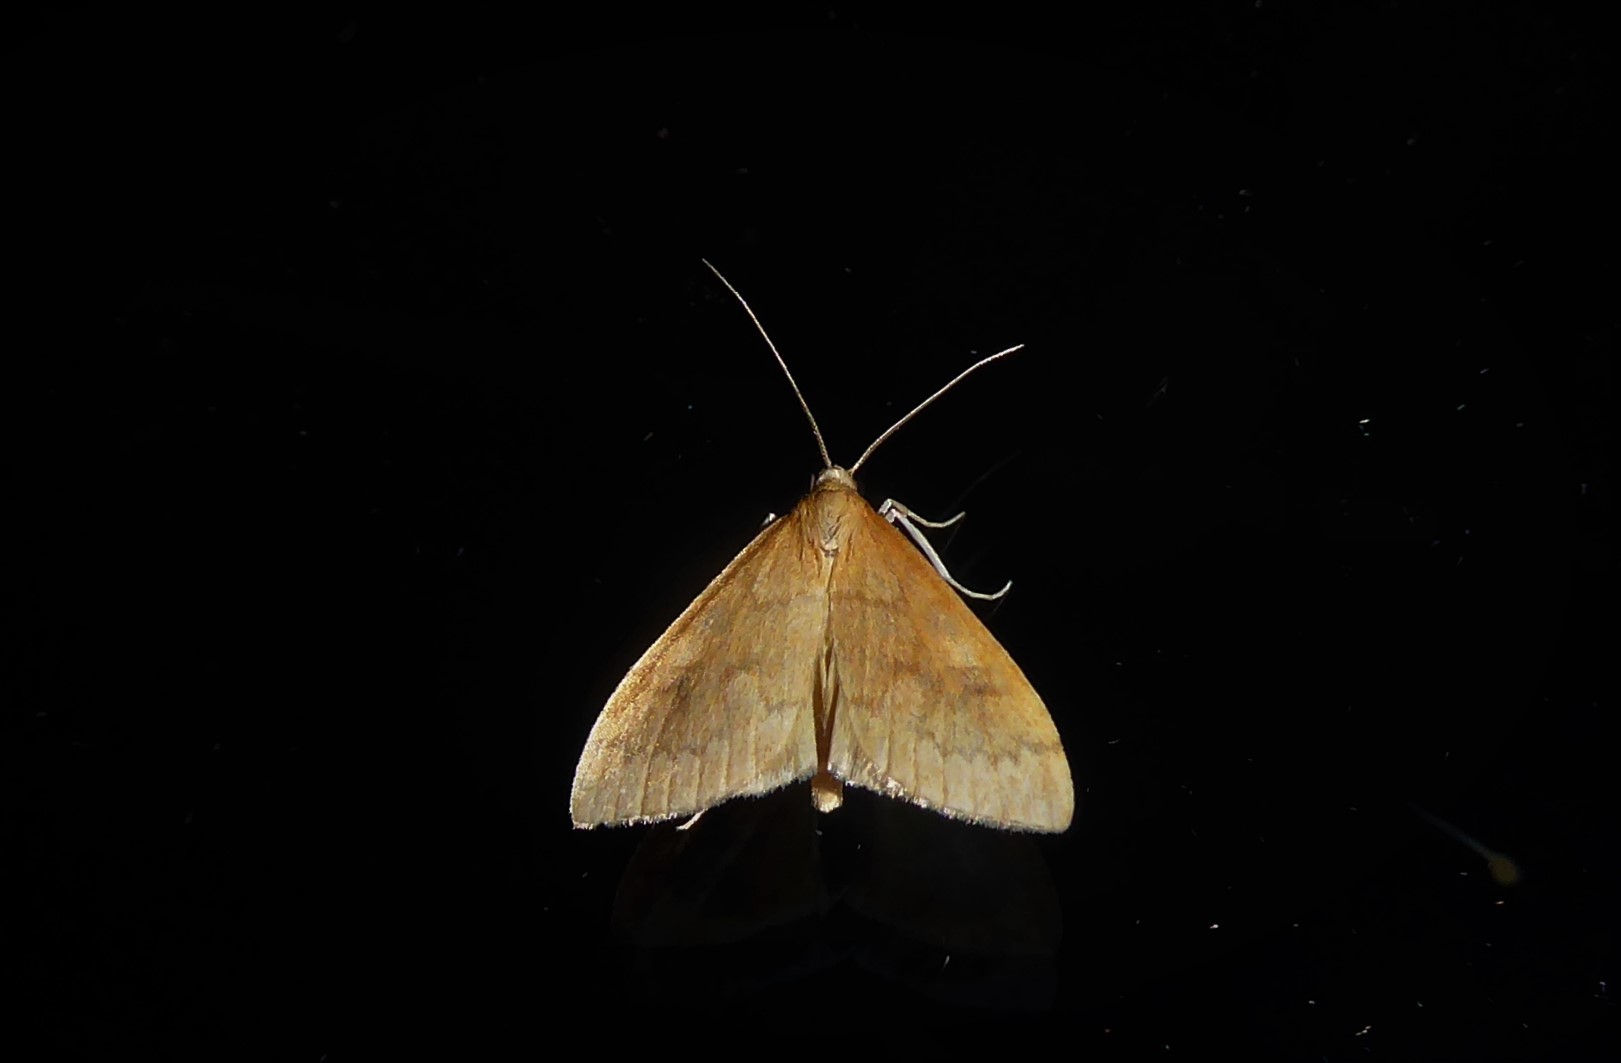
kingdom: Animalia
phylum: Arthropoda
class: Insecta
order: Lepidoptera
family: Crambidae
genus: Udea
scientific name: Udea Mnesictena flavidalis
